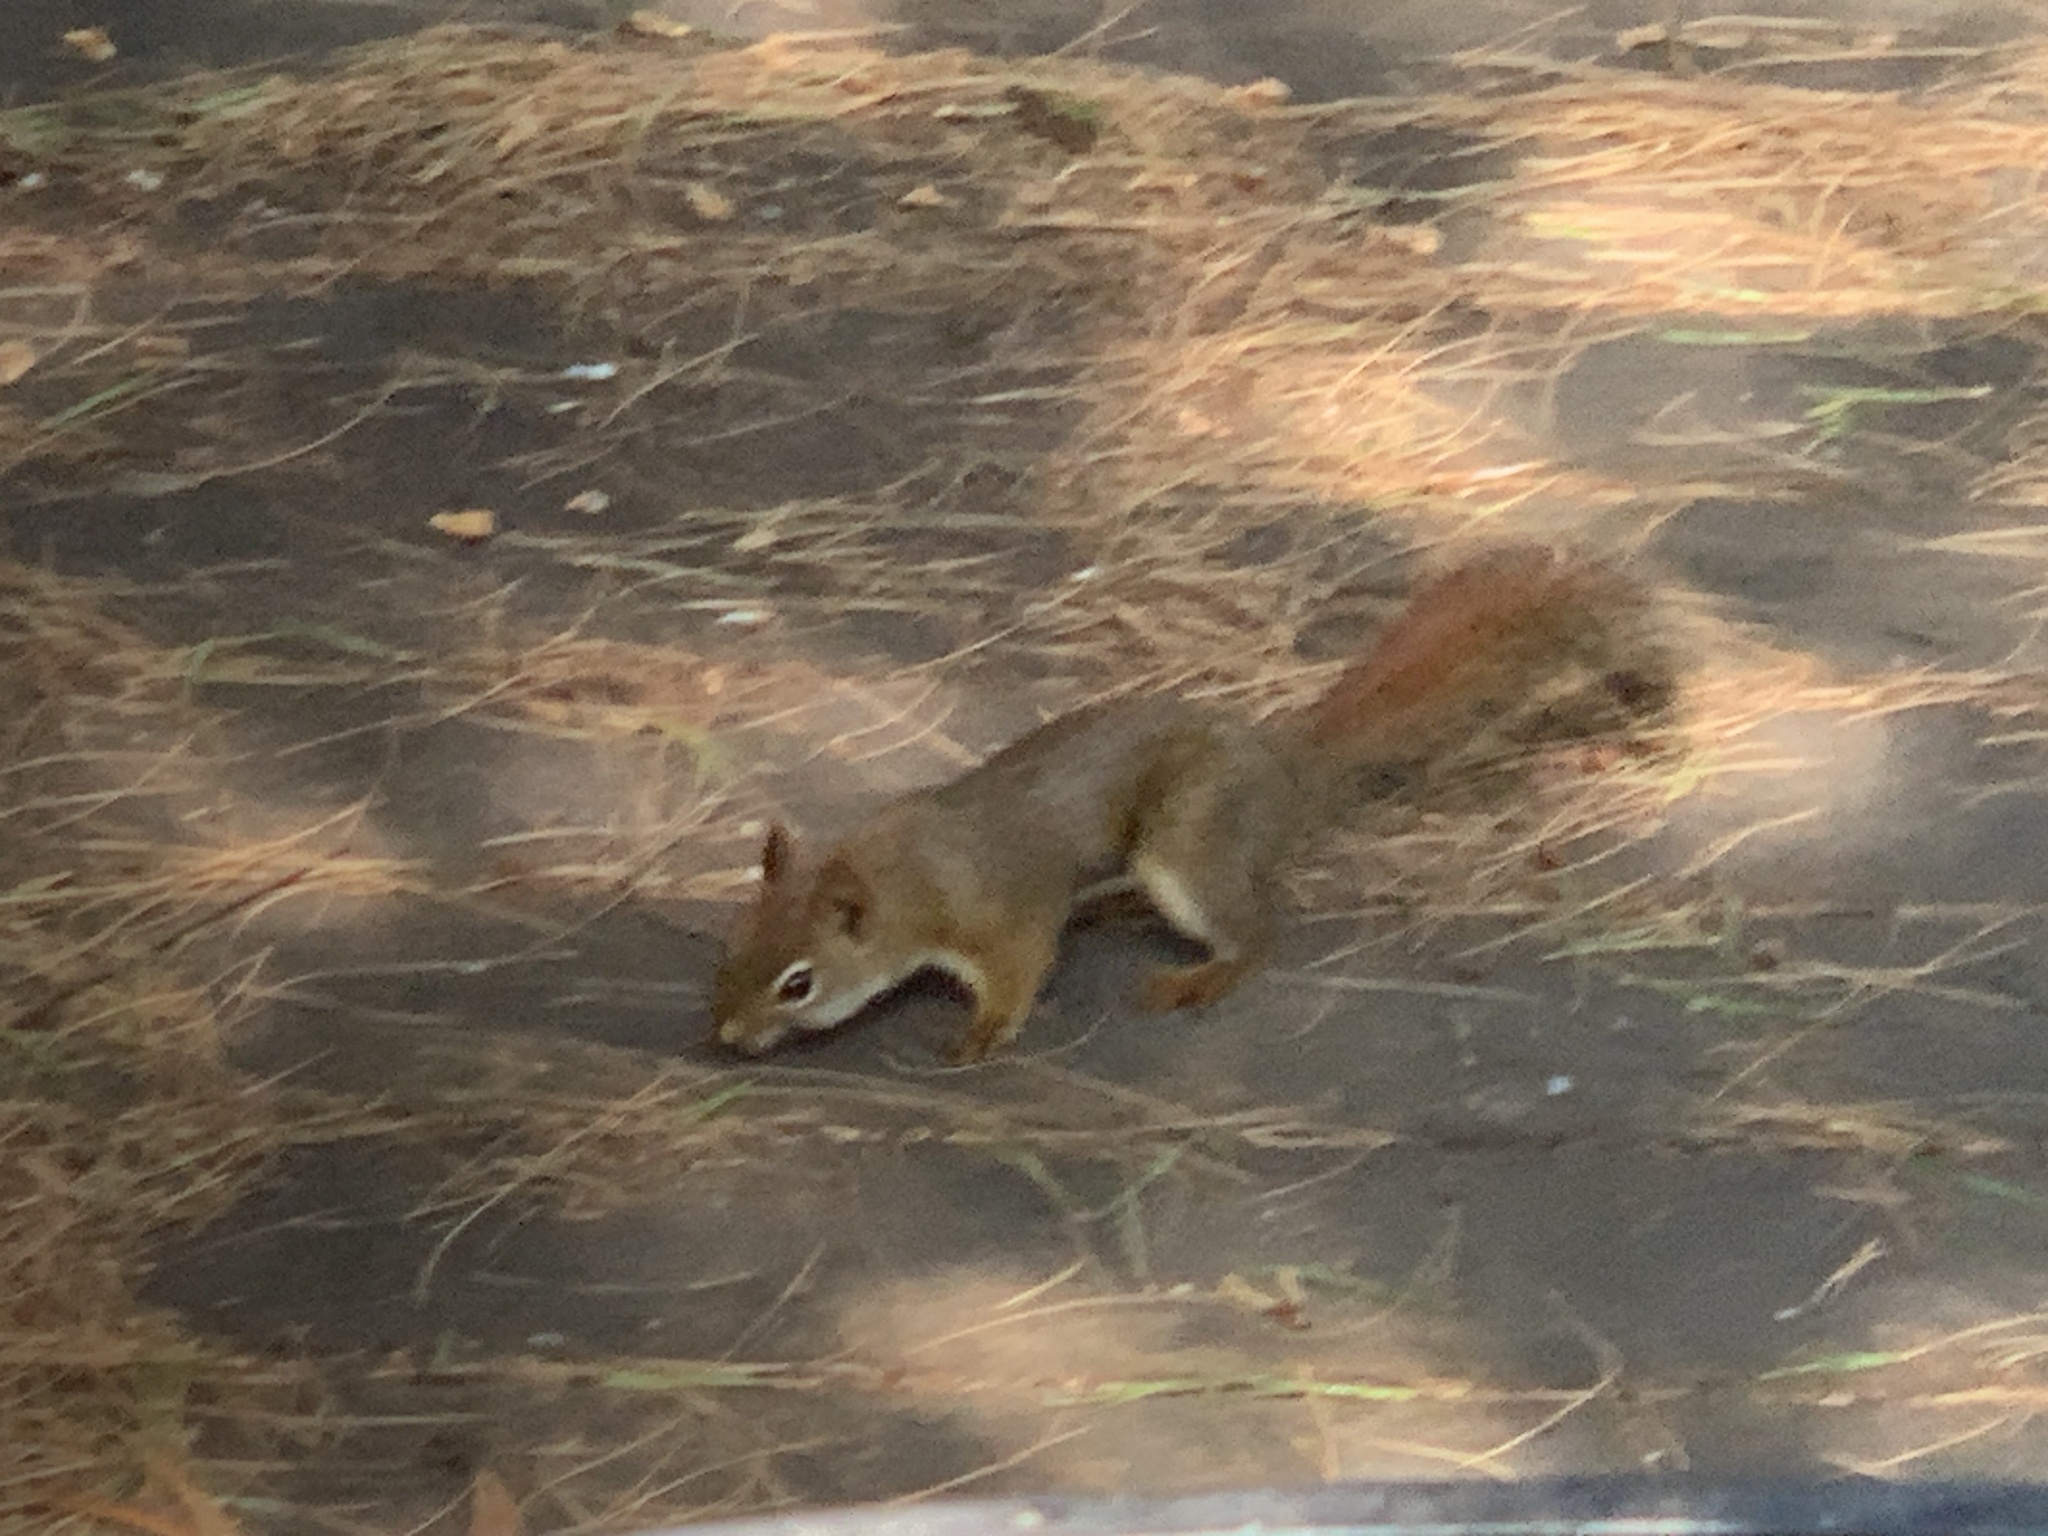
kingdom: Animalia
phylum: Chordata
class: Mammalia
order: Rodentia
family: Sciuridae
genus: Tamiasciurus
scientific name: Tamiasciurus hudsonicus
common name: Red squirrel
